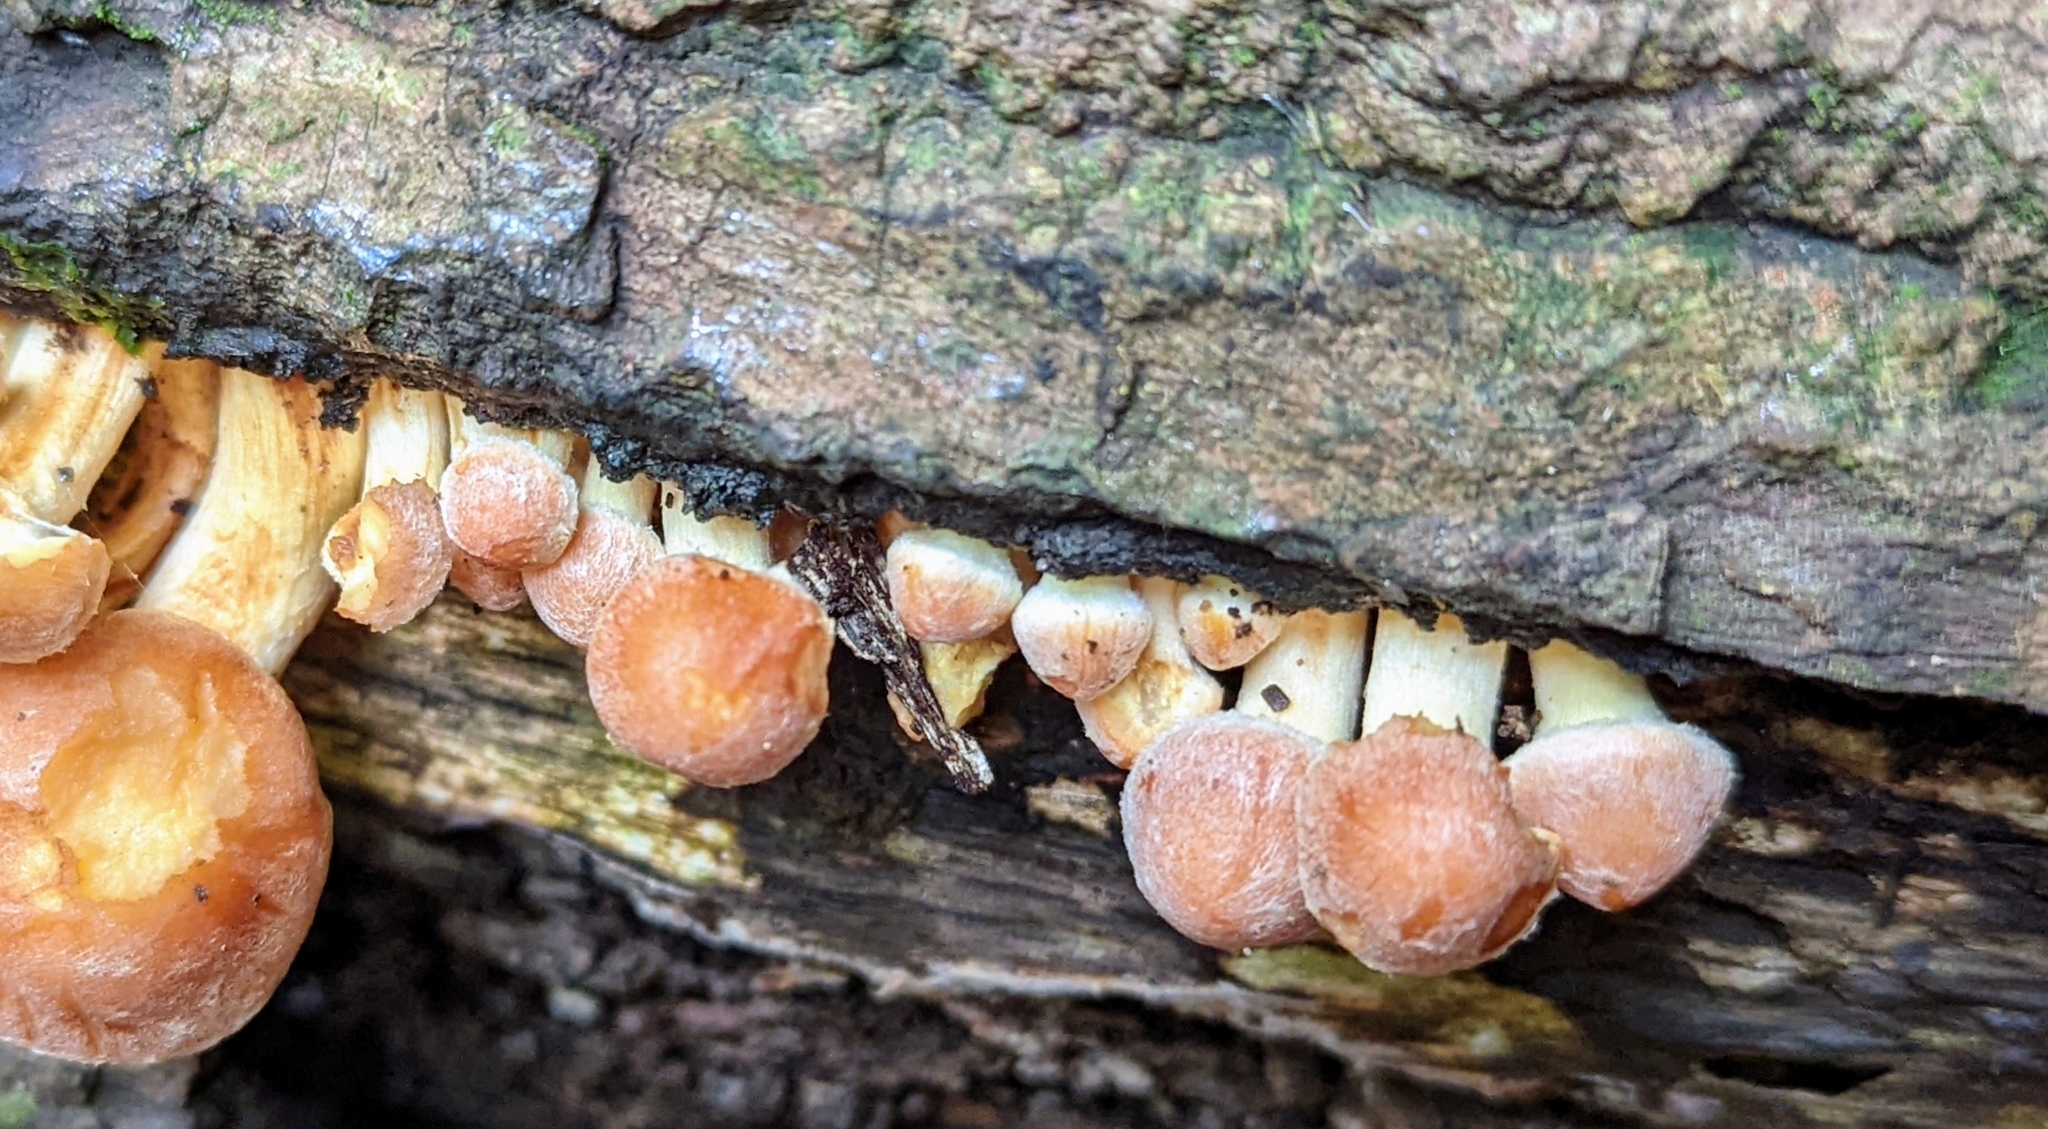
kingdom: Fungi
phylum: Basidiomycota
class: Agaricomycetes
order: Agaricales
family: Strophariaceae
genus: Hypholoma
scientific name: Hypholoma fasciculare
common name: Sulphur tuft
